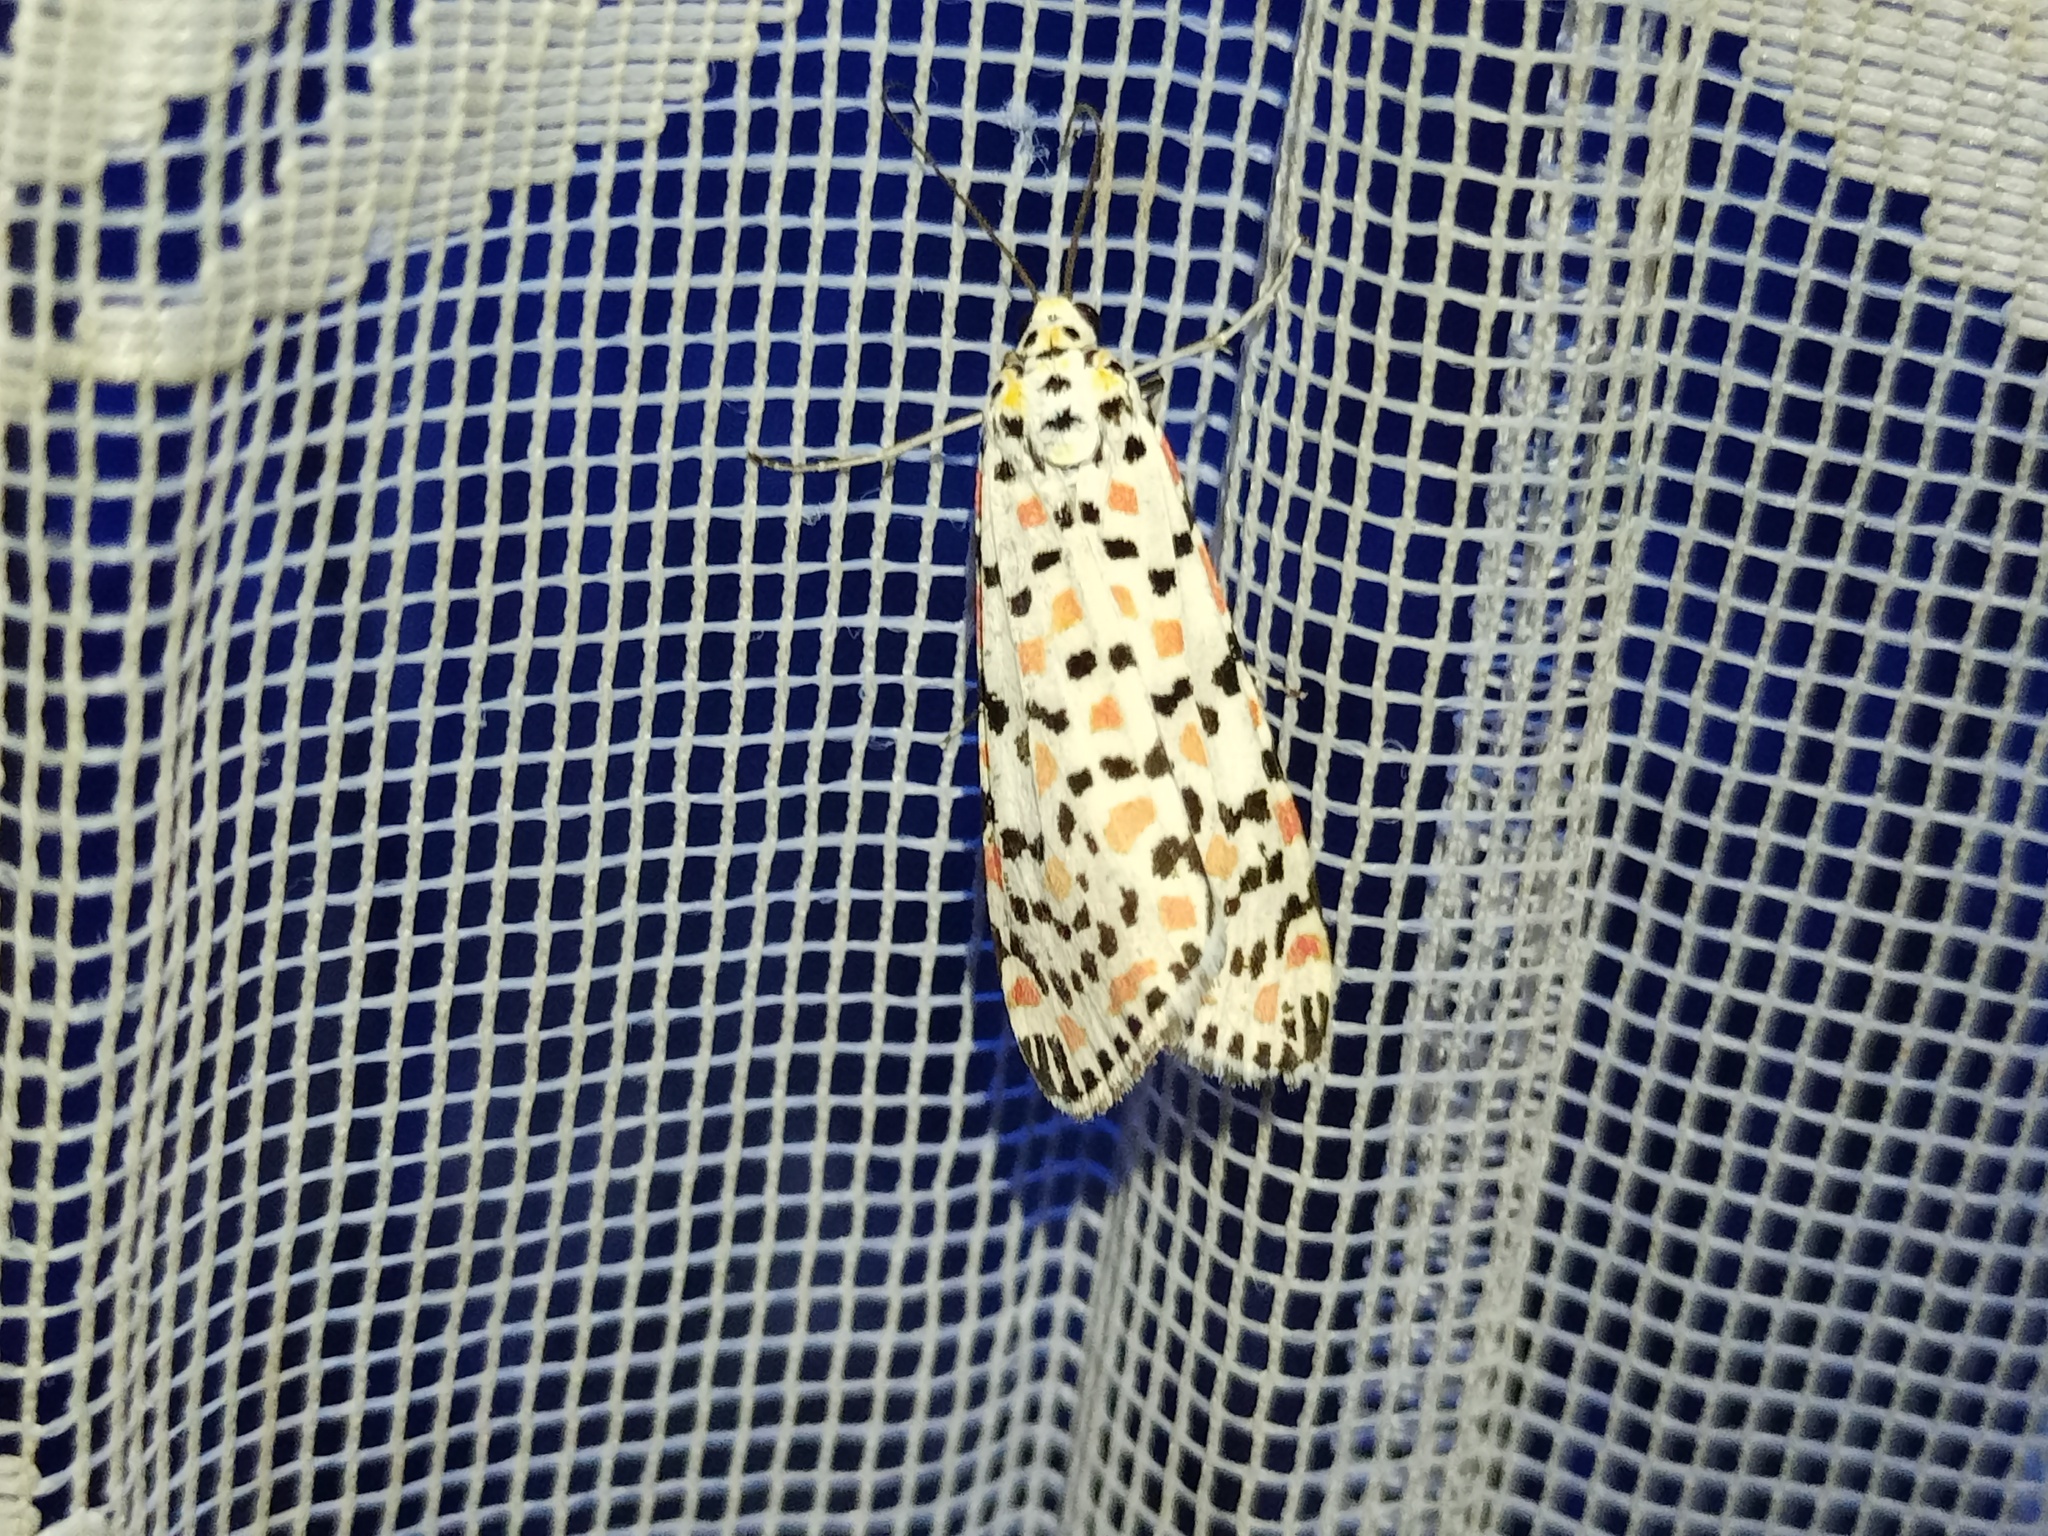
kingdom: Animalia
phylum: Arthropoda
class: Insecta
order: Lepidoptera
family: Erebidae
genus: Utetheisa
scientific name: Utetheisa pulchella
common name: Crimson speckled
